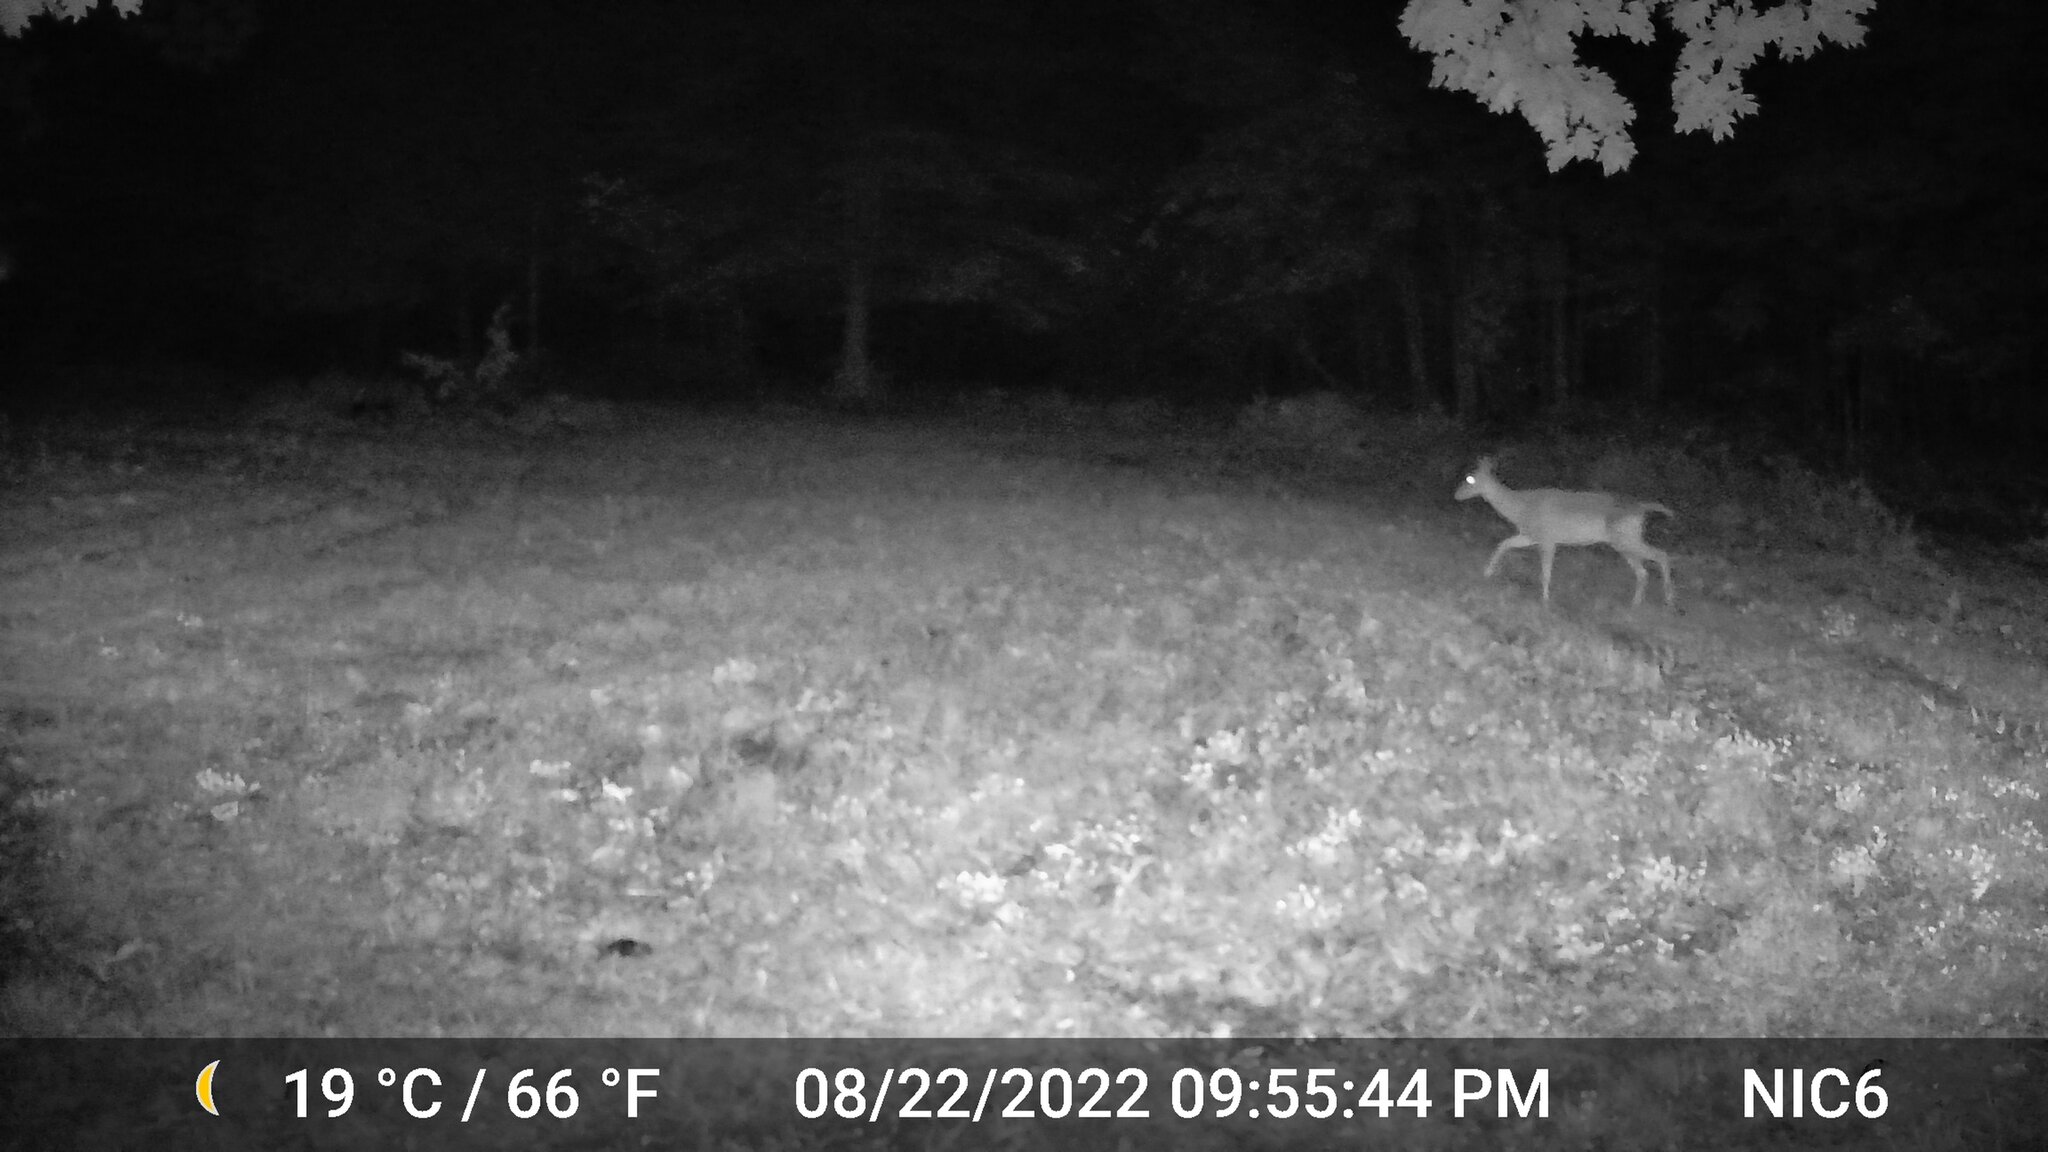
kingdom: Animalia
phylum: Chordata
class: Mammalia
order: Artiodactyla
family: Cervidae
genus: Odocoileus
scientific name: Odocoileus virginianus
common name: White-tailed deer
